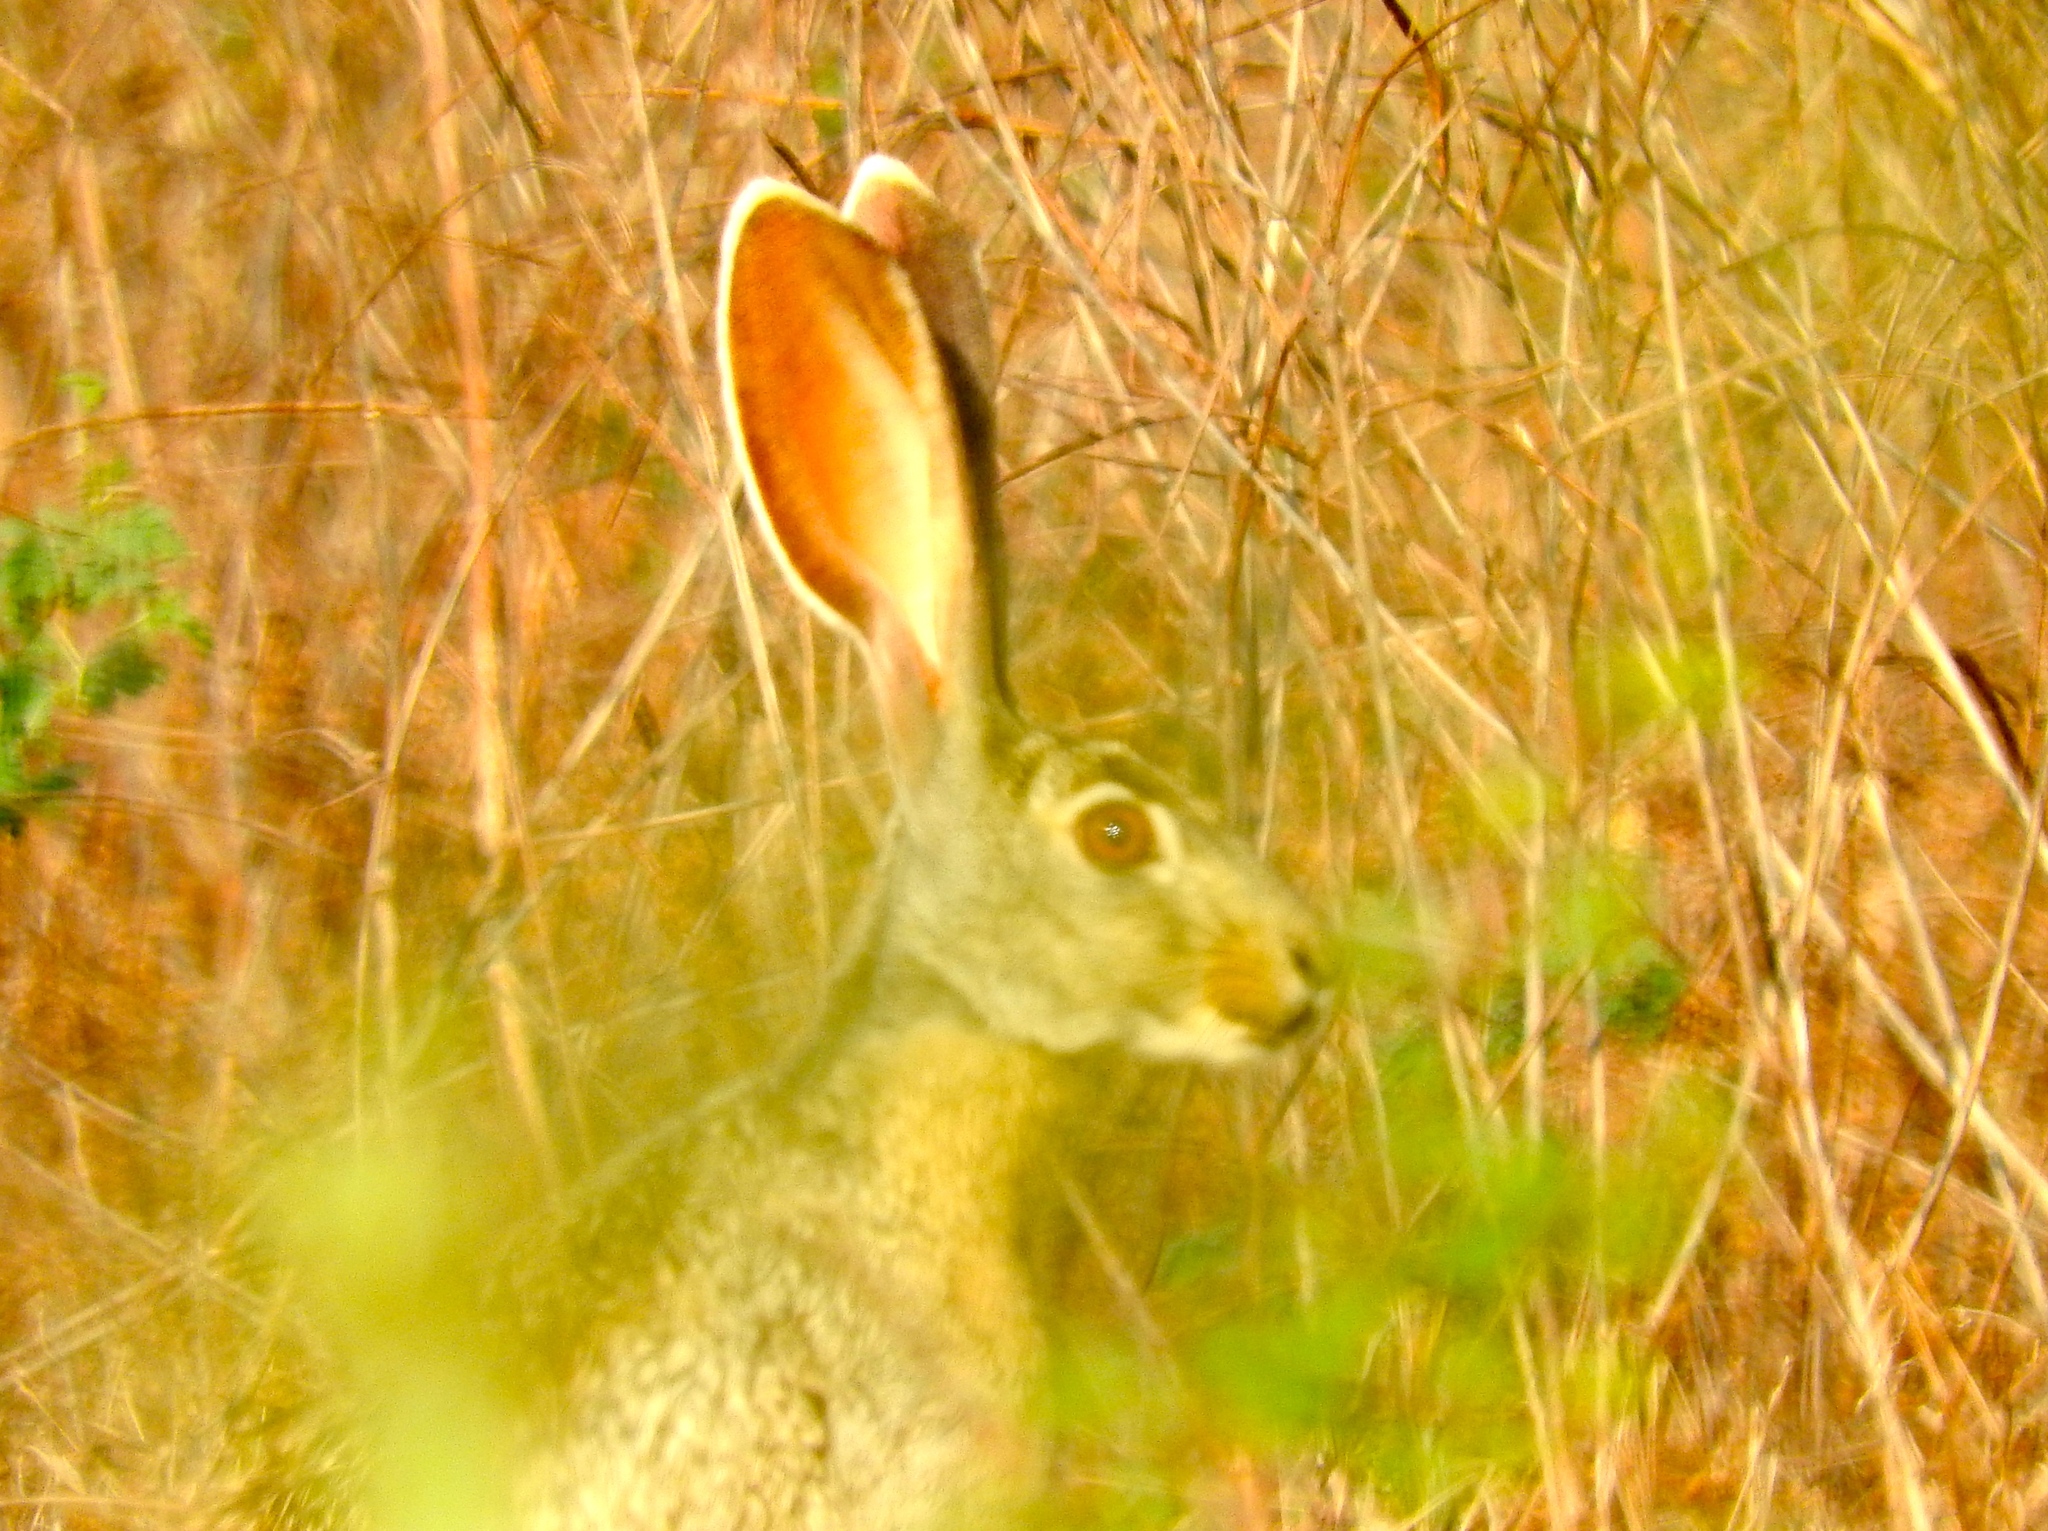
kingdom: Animalia
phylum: Chordata
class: Mammalia
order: Lagomorpha
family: Leporidae
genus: Lepus
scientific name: Lepus alleni
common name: Antelope jackrabbit
